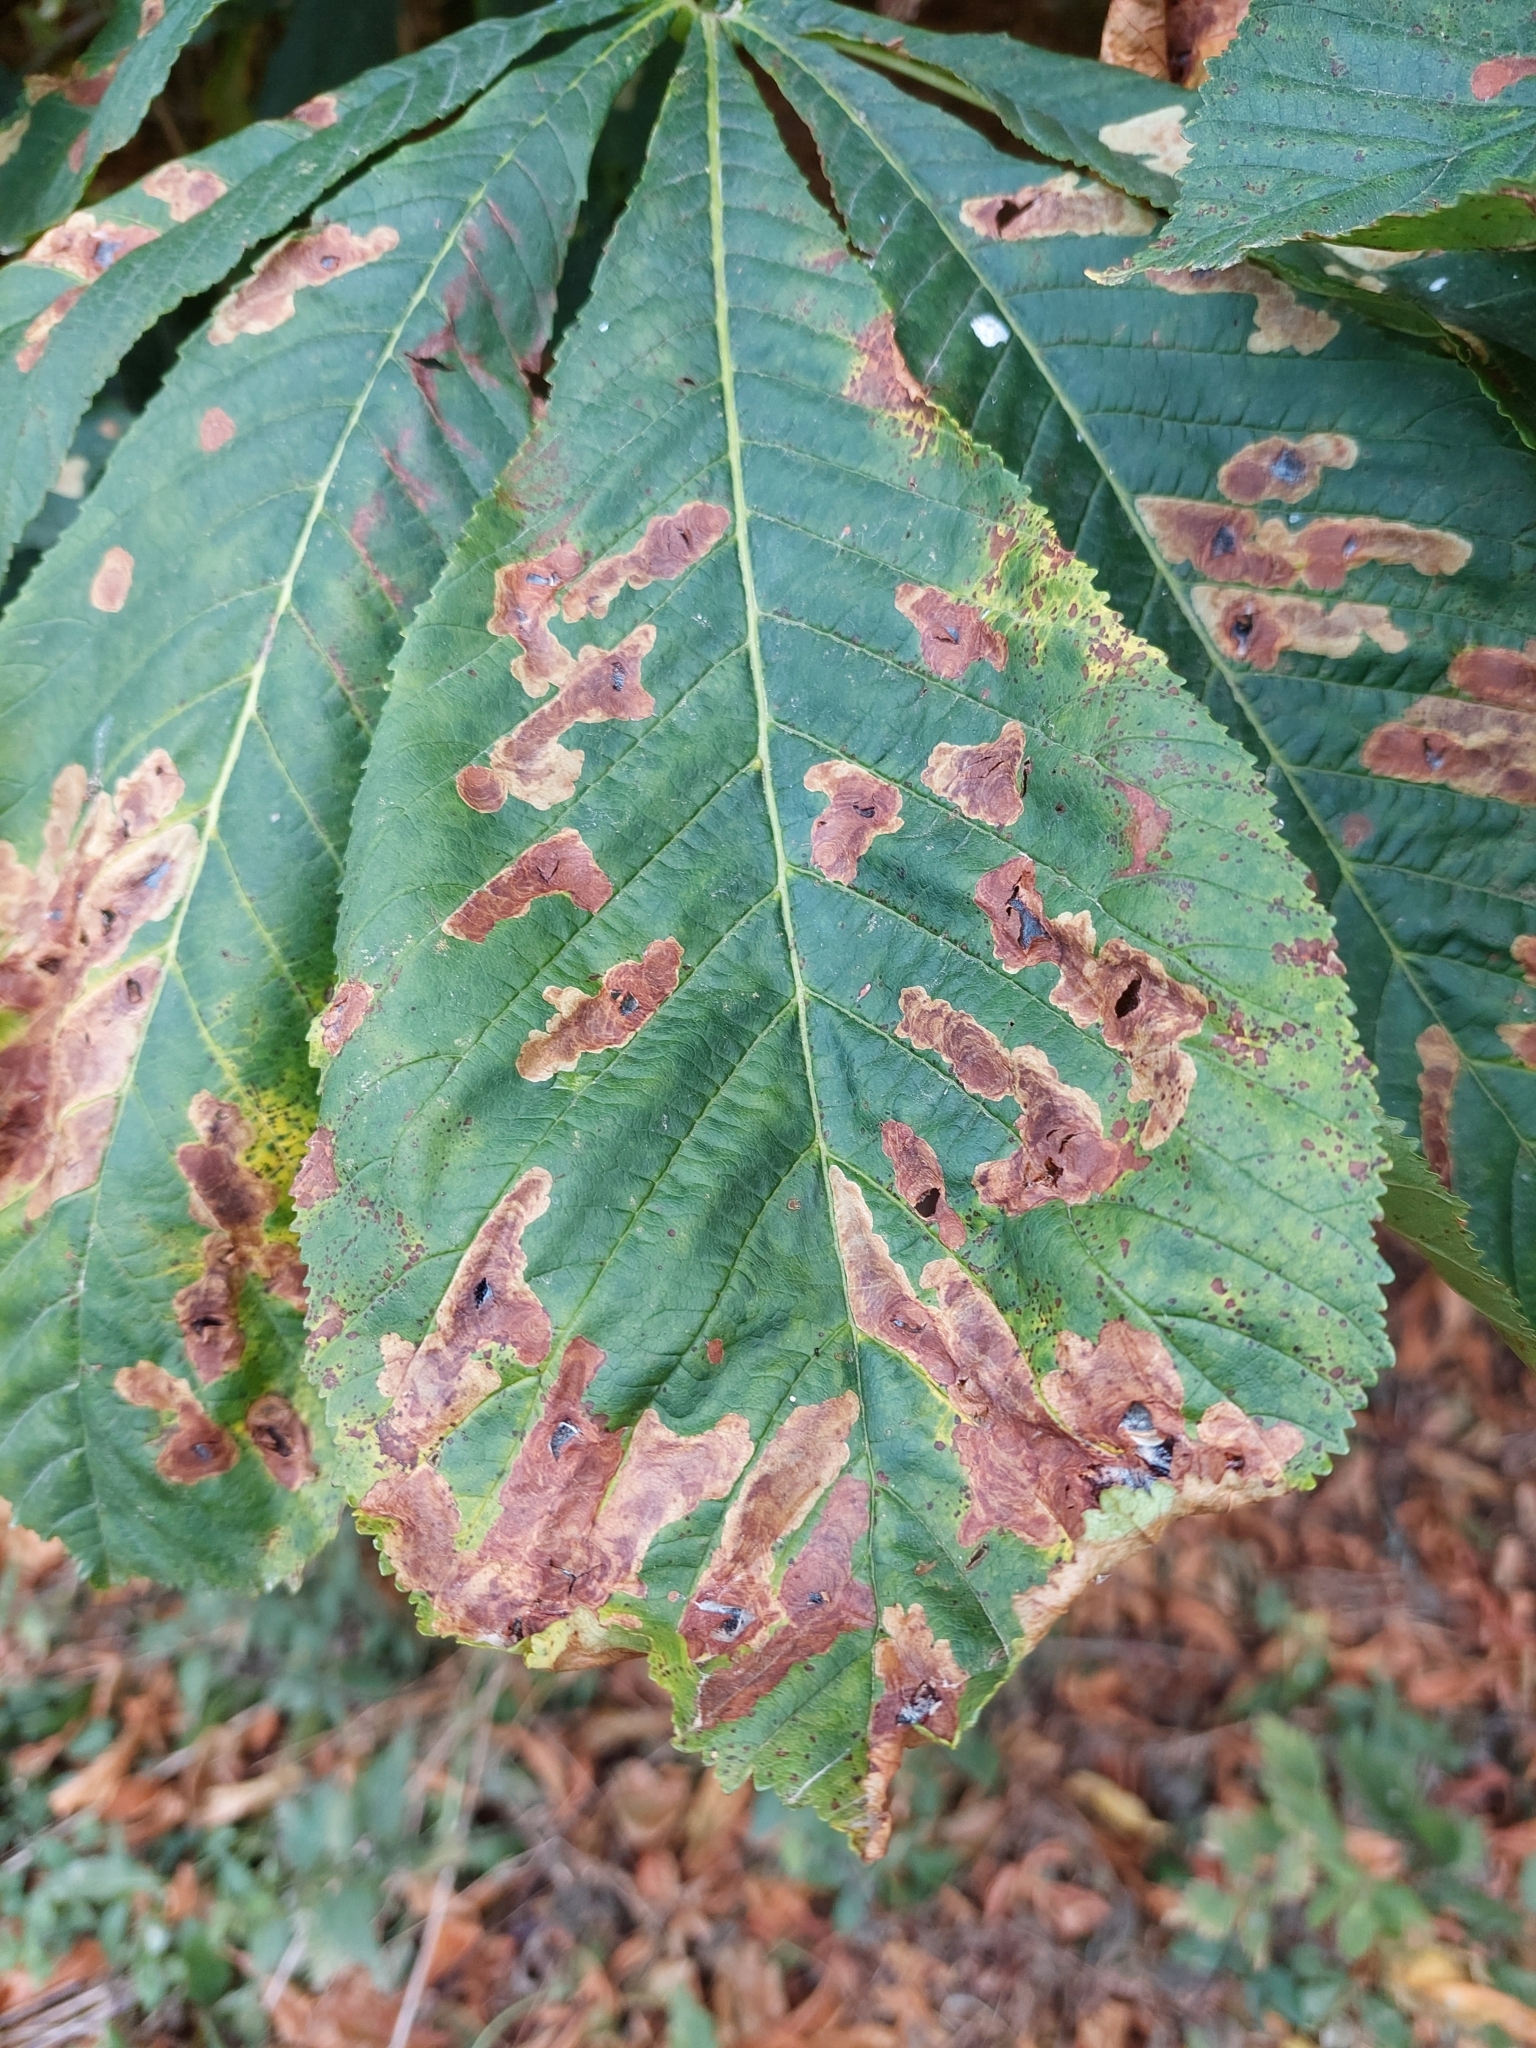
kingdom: Animalia
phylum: Arthropoda
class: Insecta
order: Lepidoptera
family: Gracillariidae
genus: Cameraria
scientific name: Cameraria ohridella
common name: Horse-chestnut leaf-miner
